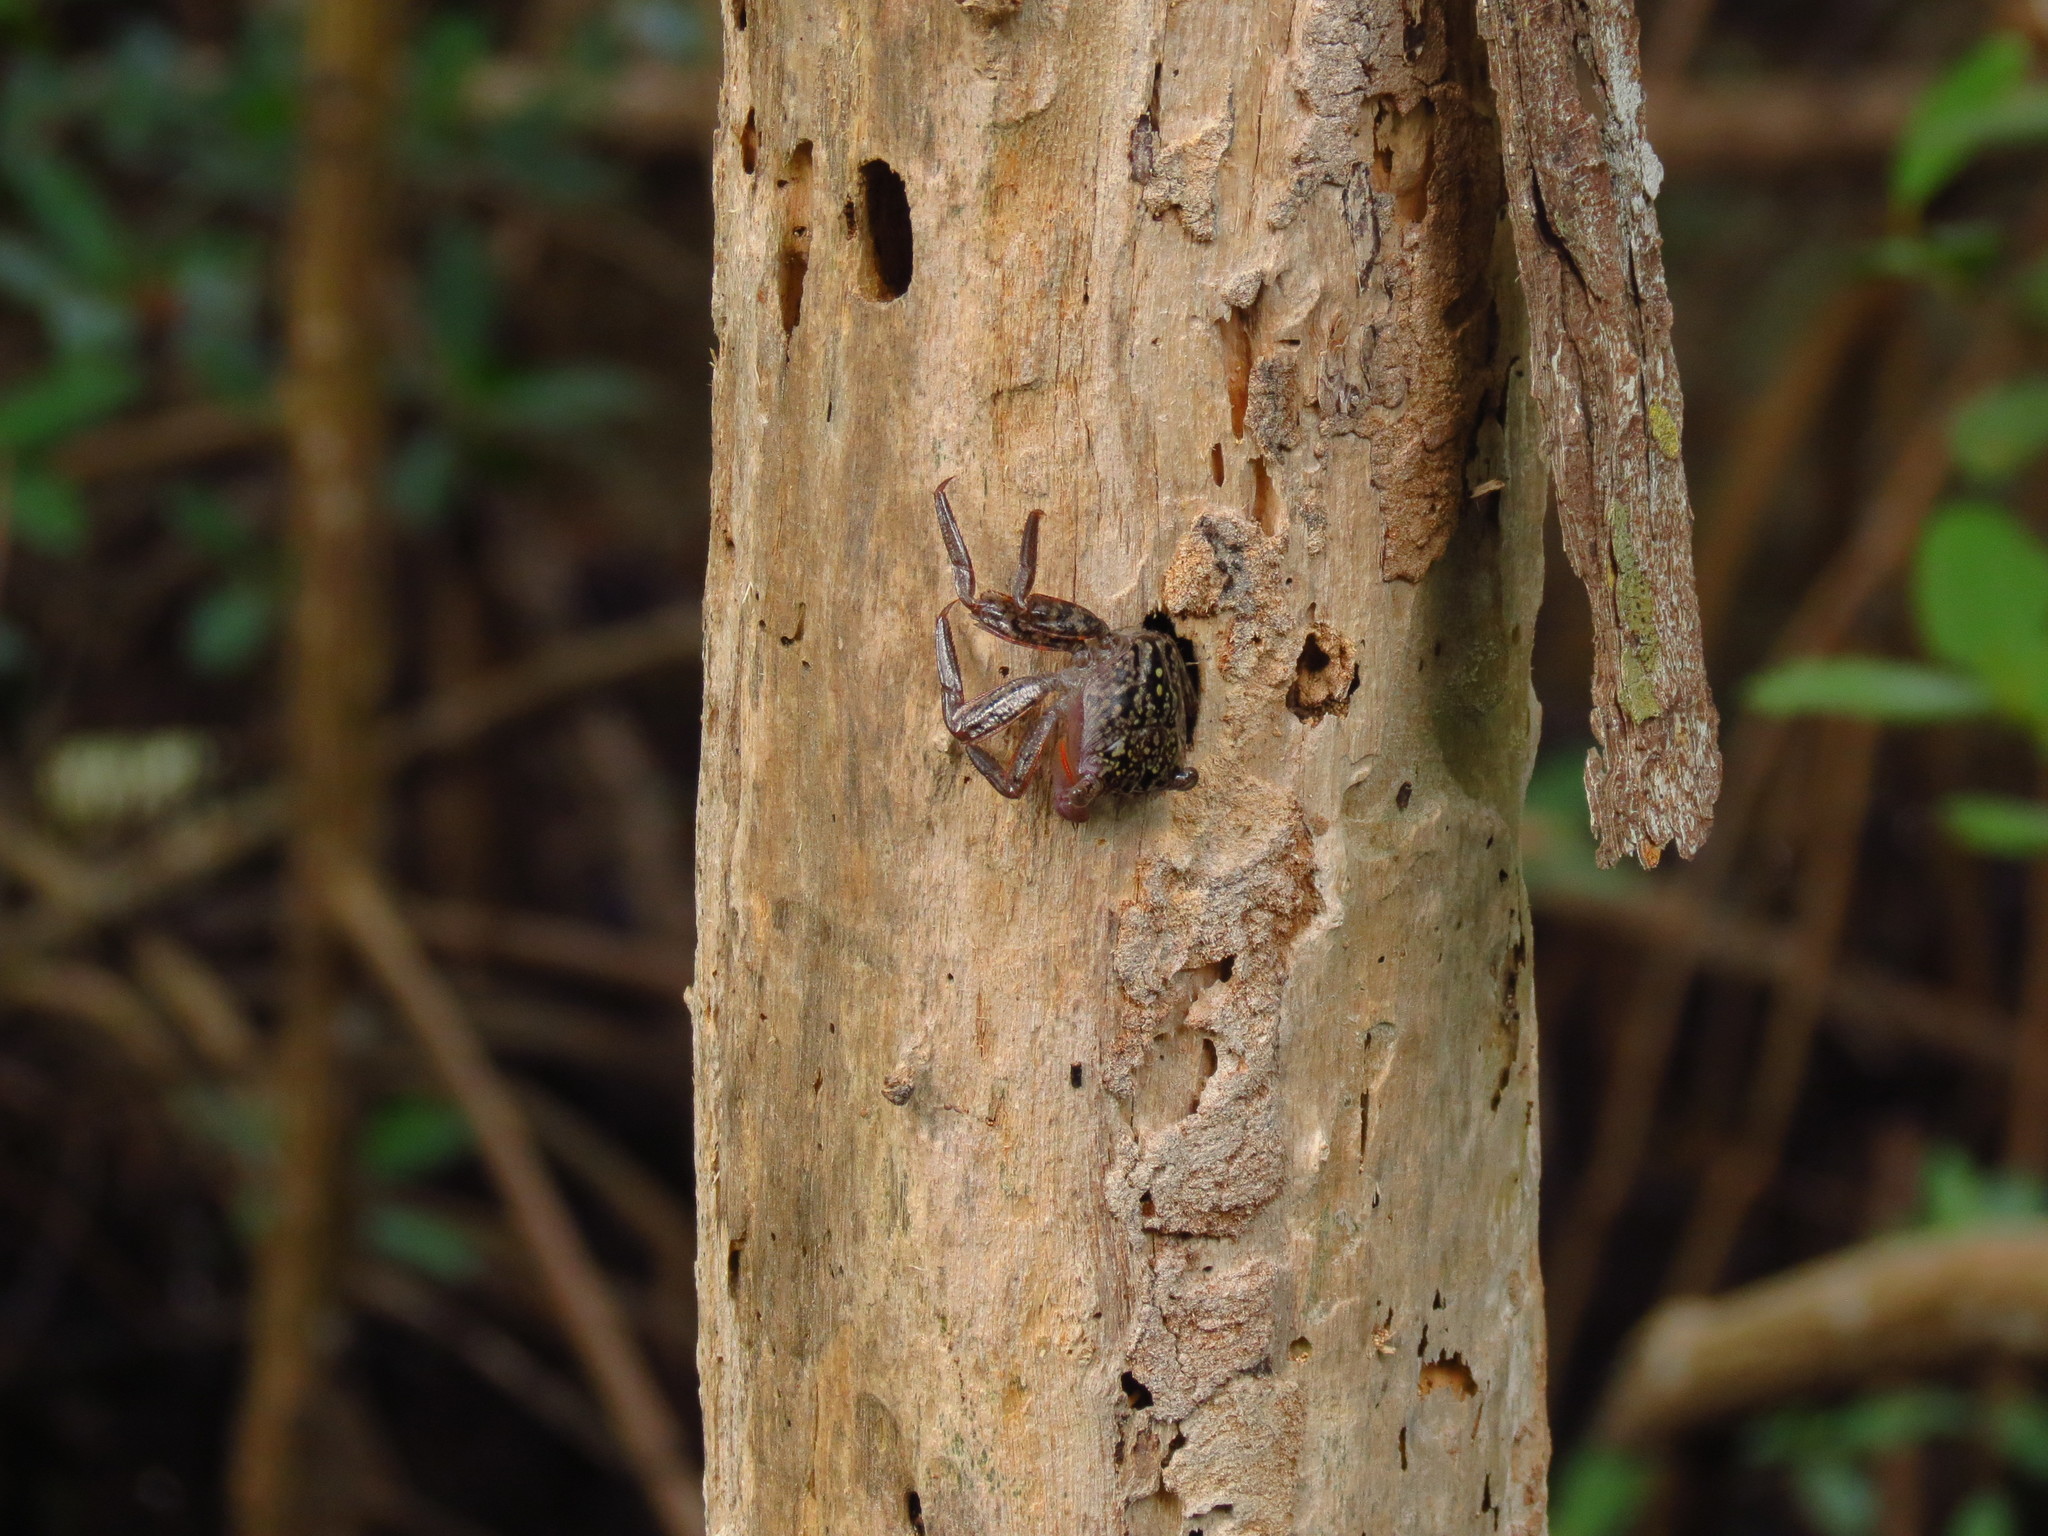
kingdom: Animalia
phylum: Arthropoda
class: Malacostraca
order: Decapoda
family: Sesarmidae
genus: Aratus
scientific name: Aratus pisonii
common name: Mangrove crab
